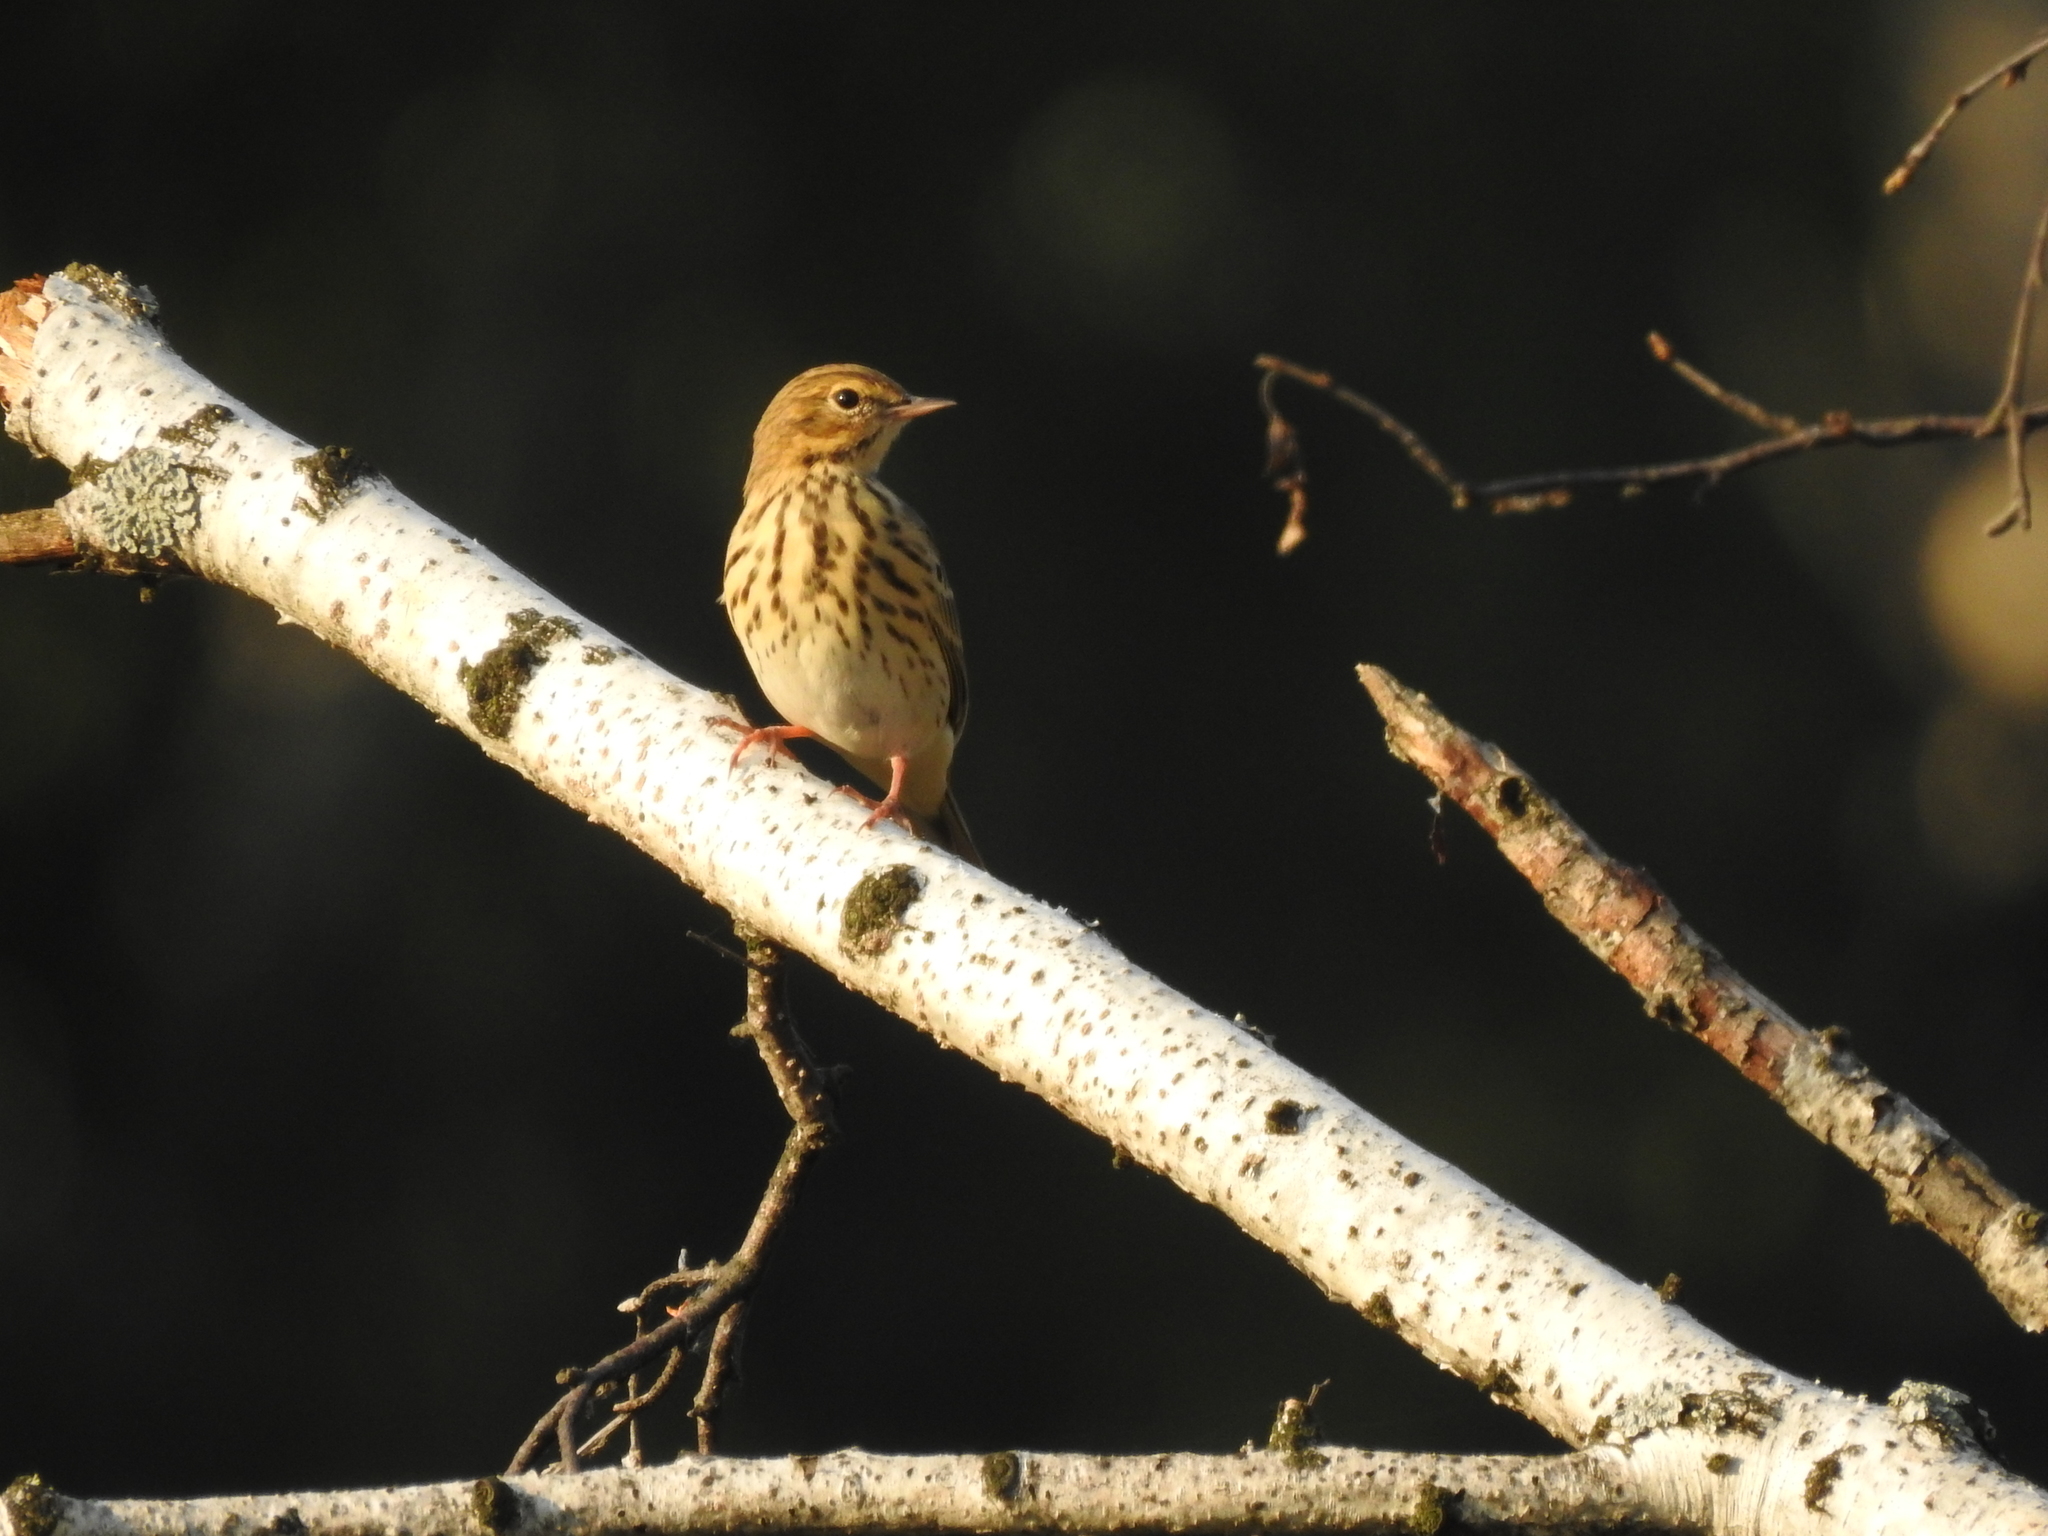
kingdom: Animalia
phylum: Chordata
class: Aves
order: Passeriformes
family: Motacillidae
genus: Anthus
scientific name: Anthus trivialis
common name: Tree pipit
